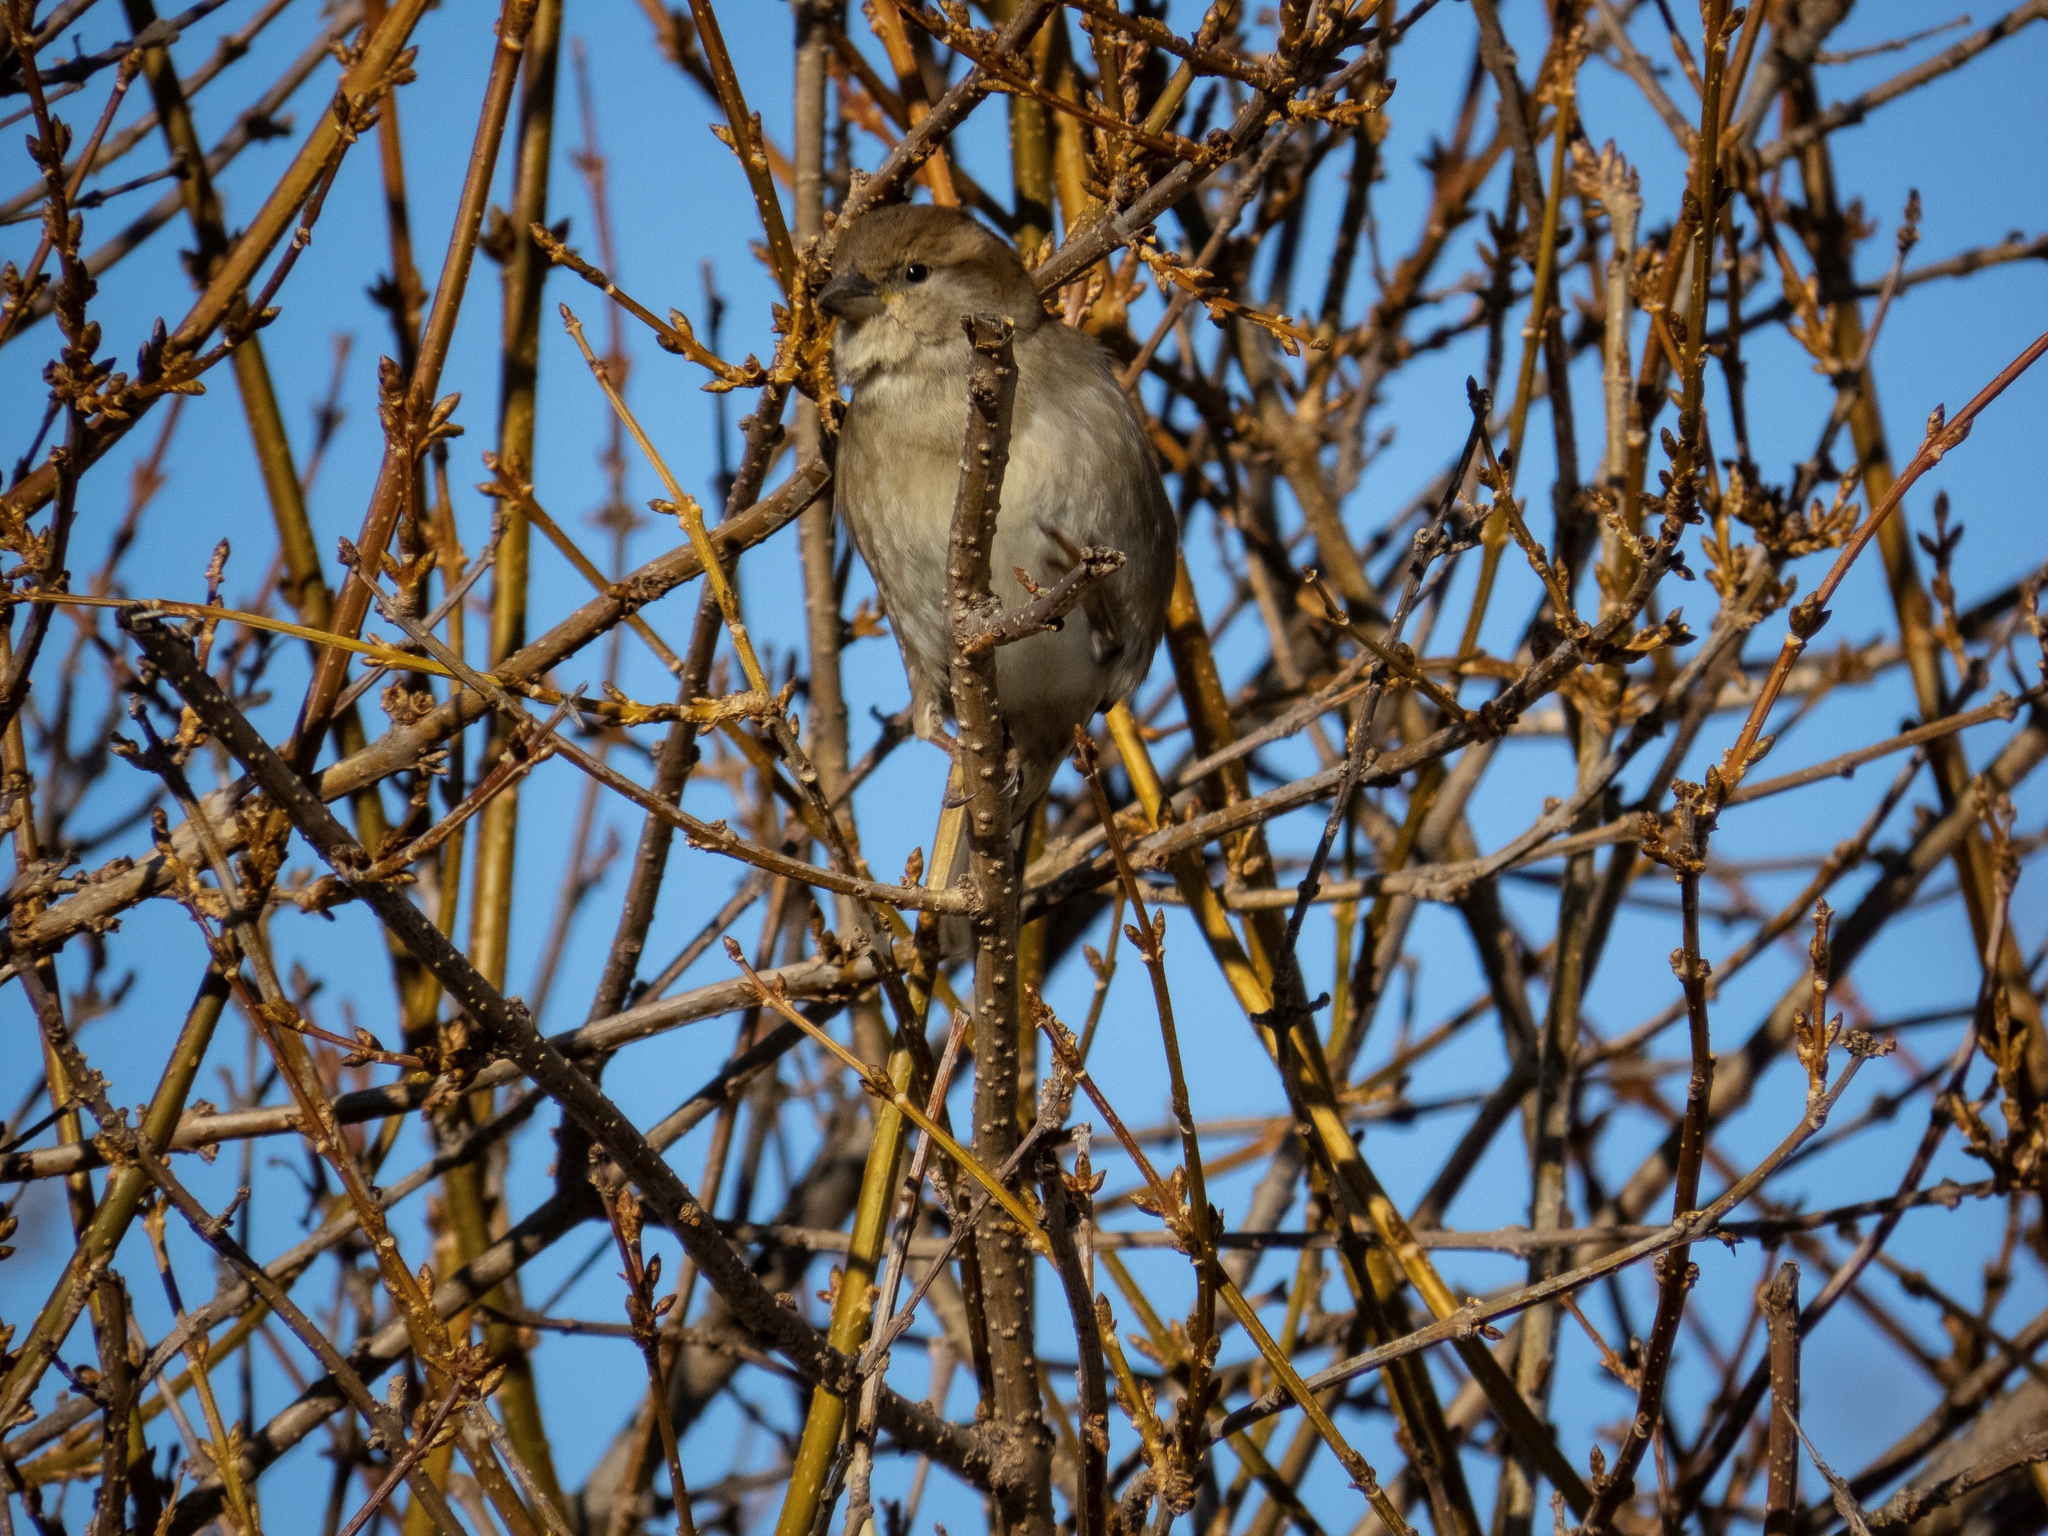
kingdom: Animalia
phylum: Chordata
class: Aves
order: Passeriformes
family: Passeridae
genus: Passer
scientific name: Passer domesticus
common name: House sparrow
